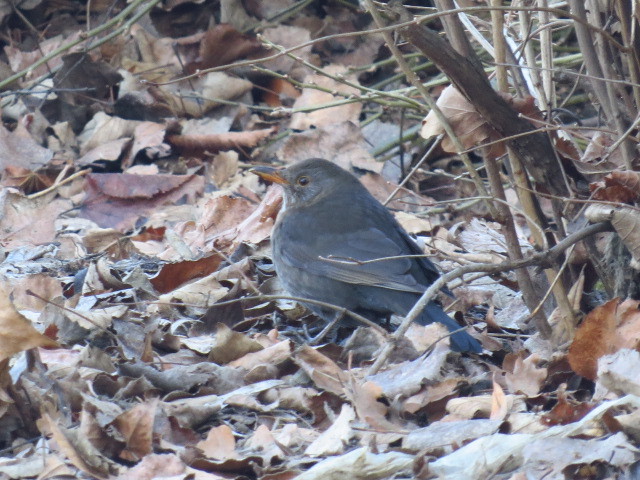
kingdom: Animalia
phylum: Chordata
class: Aves
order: Passeriformes
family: Turdidae
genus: Turdus
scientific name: Turdus merula
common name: Common blackbird
